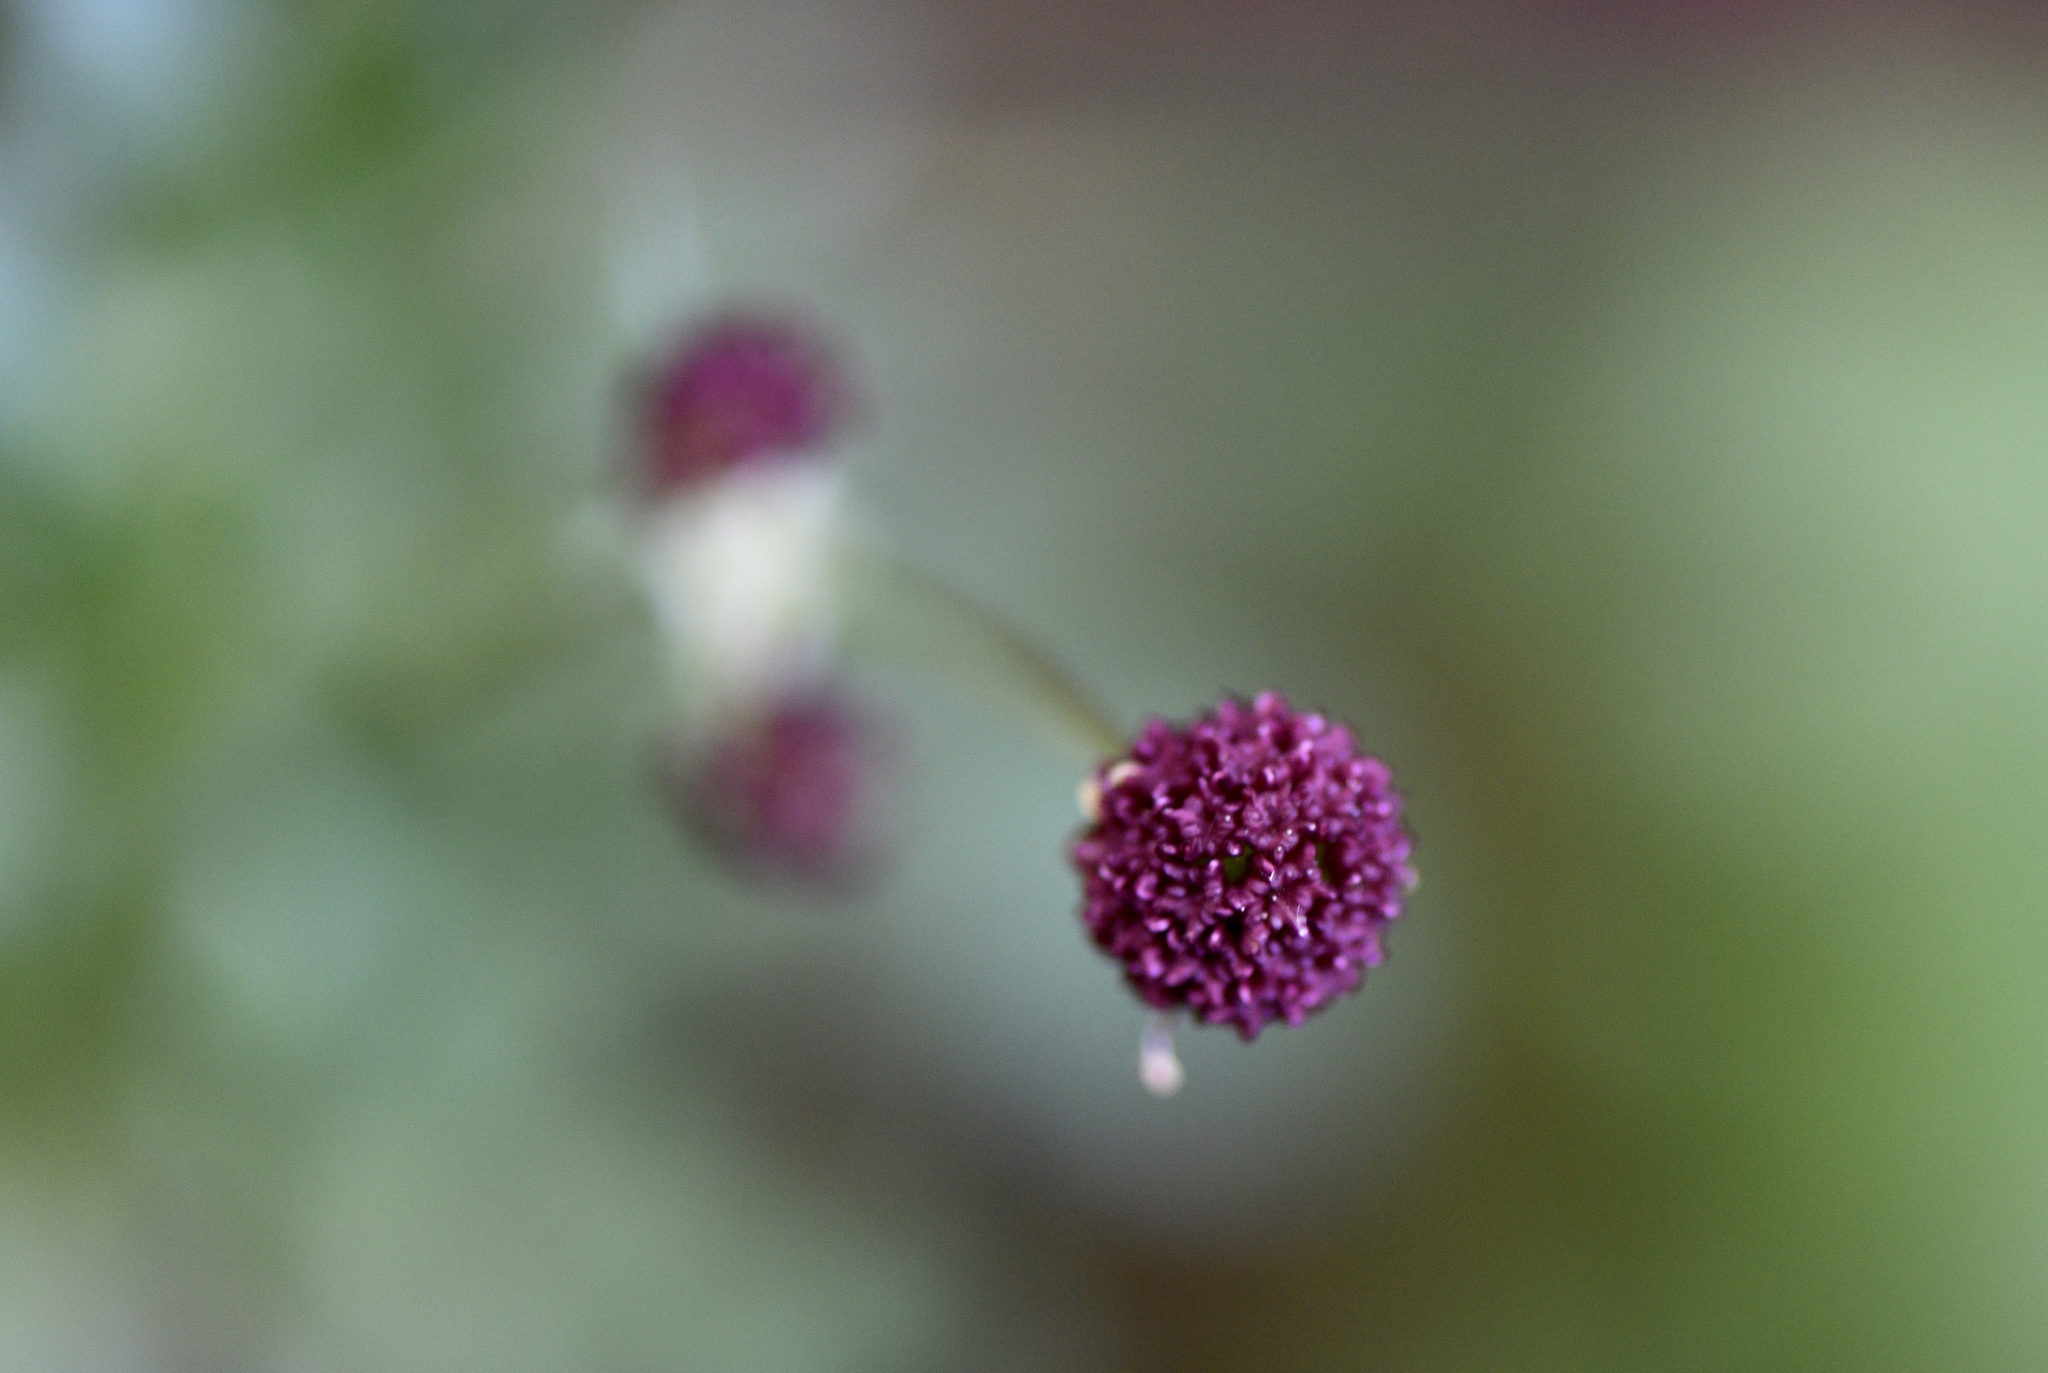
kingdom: Plantae
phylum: Tracheophyta
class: Magnoliopsida
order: Apiales
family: Apiaceae
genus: Sanicula
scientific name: Sanicula bipinnatifida
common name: Shoe-buttons
